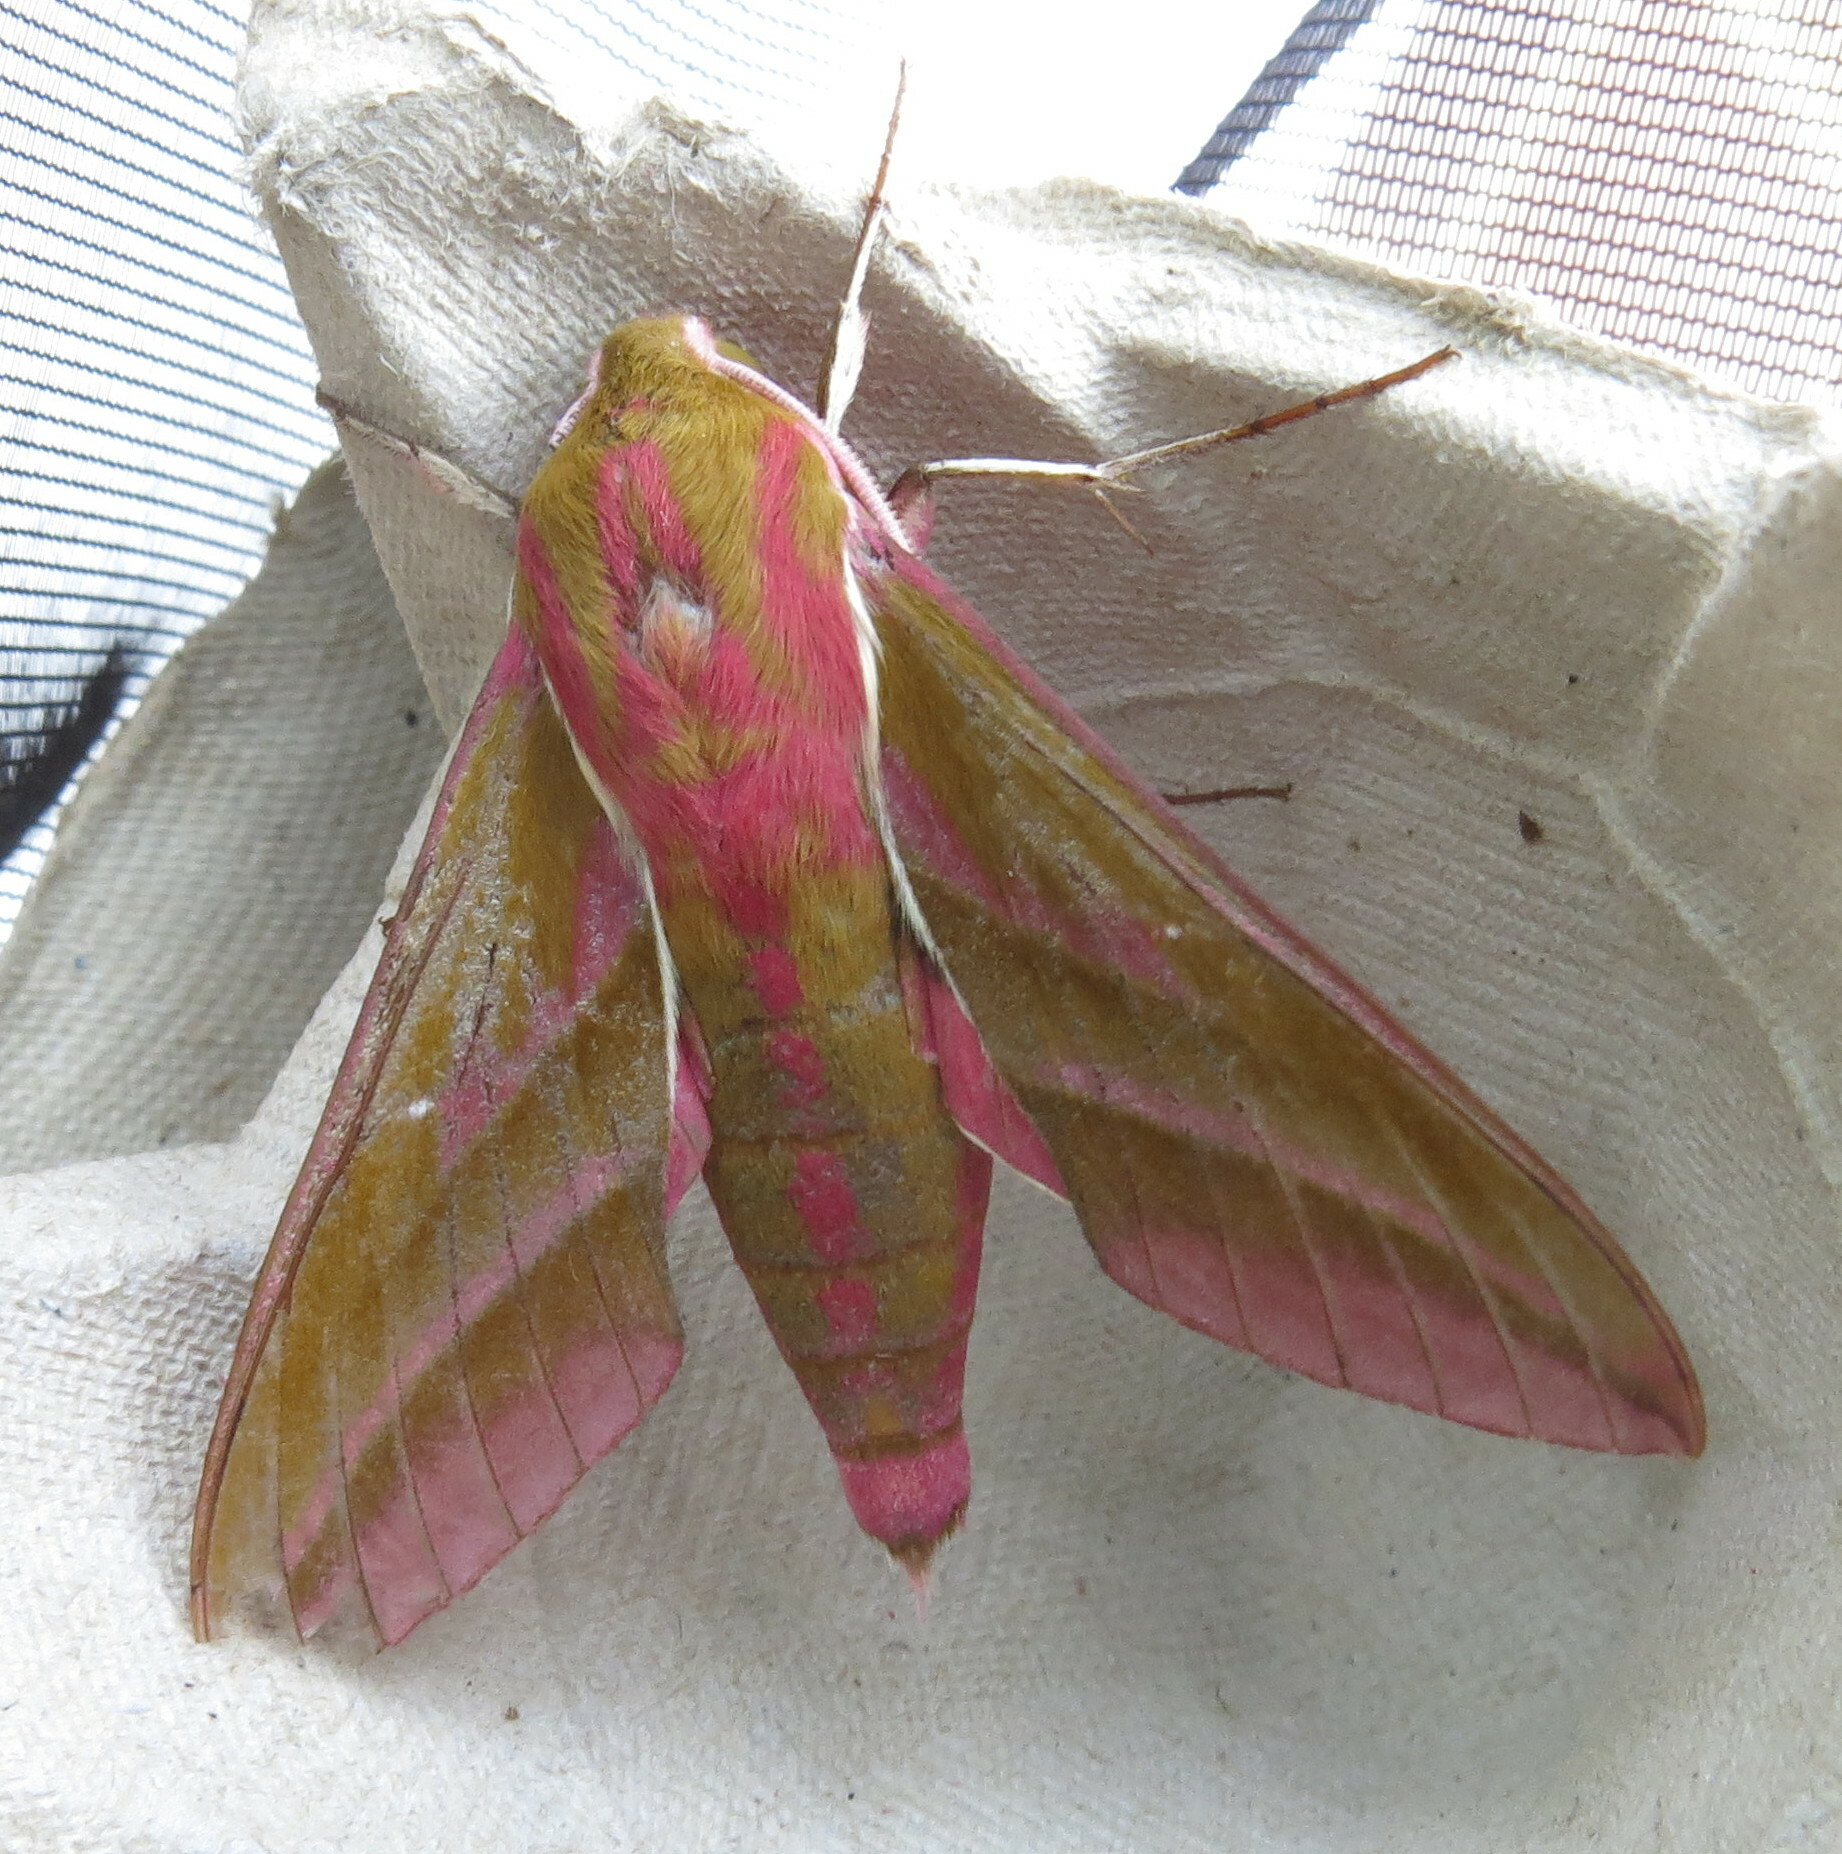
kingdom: Animalia
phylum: Arthropoda
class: Insecta
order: Lepidoptera
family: Sphingidae
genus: Deilephila
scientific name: Deilephila elpenor
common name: Elephant hawk-moth
